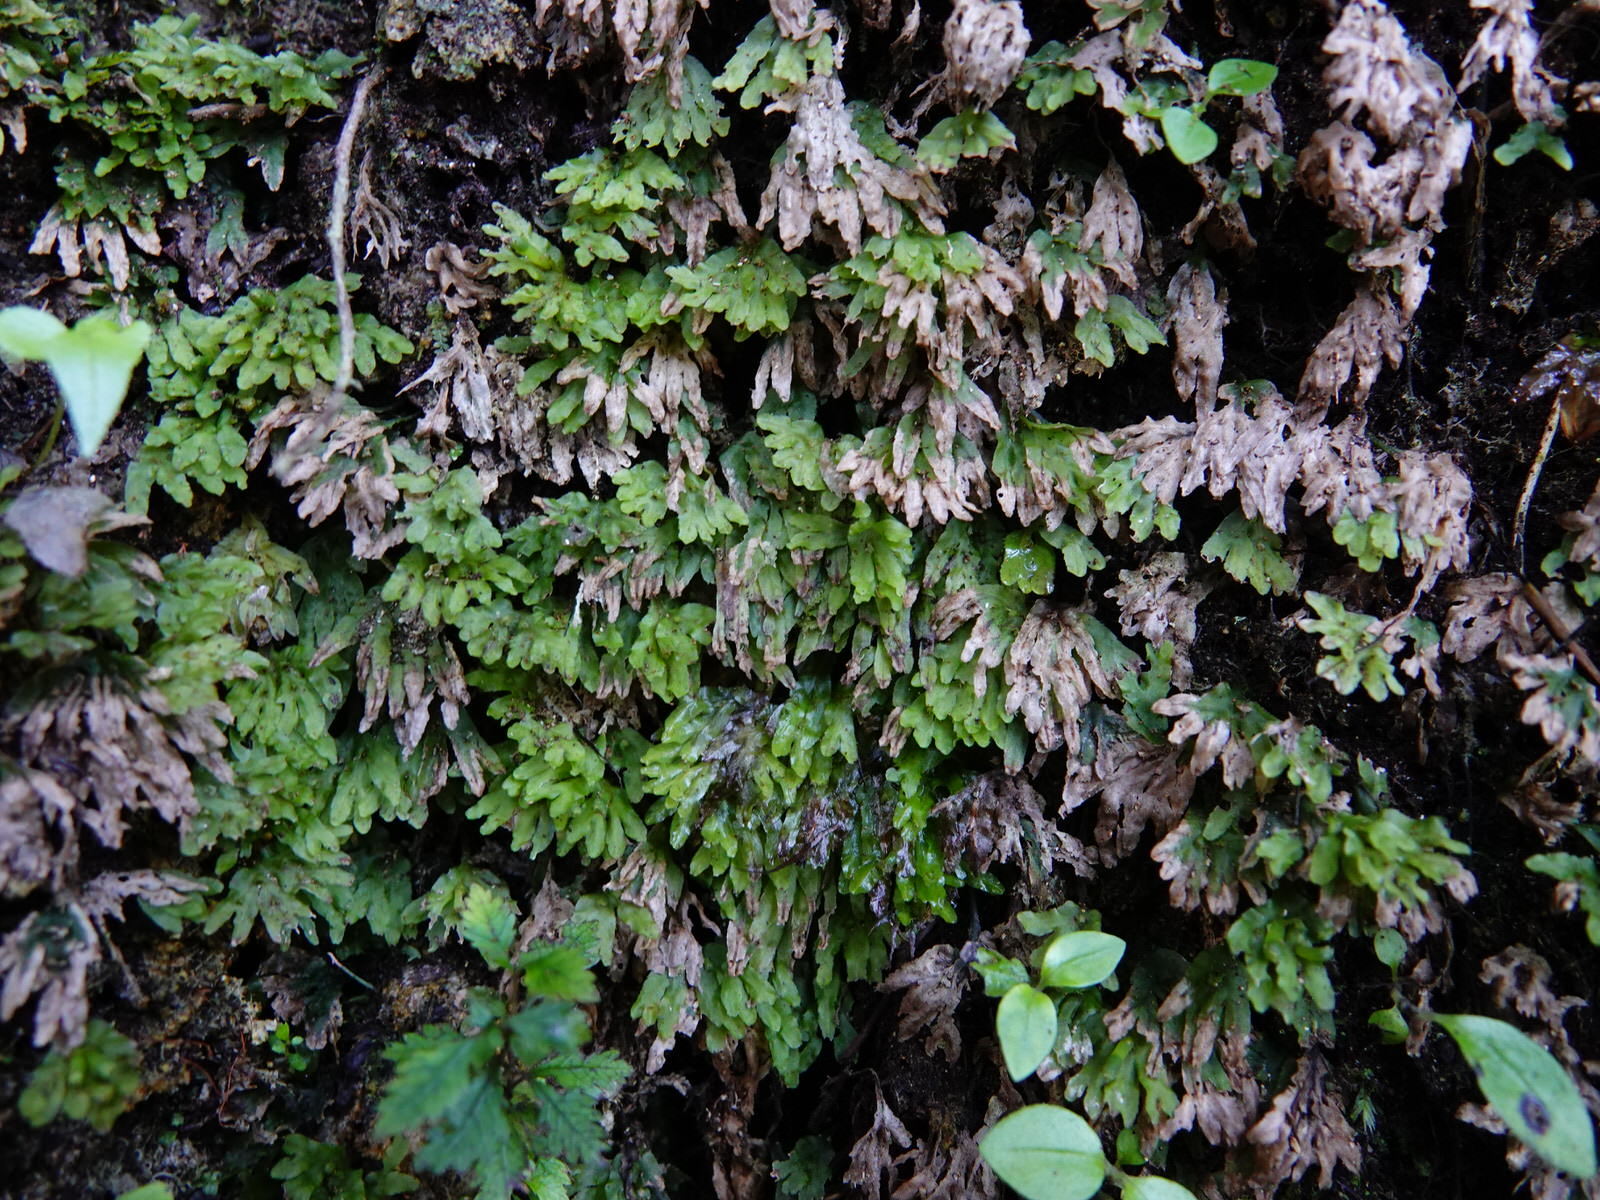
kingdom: Plantae
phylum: Marchantiophyta
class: Jungermanniopsida
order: Pallaviciniales
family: Pallaviciniaceae
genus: Symphyogyna
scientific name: Symphyogyna hymenophyllum
